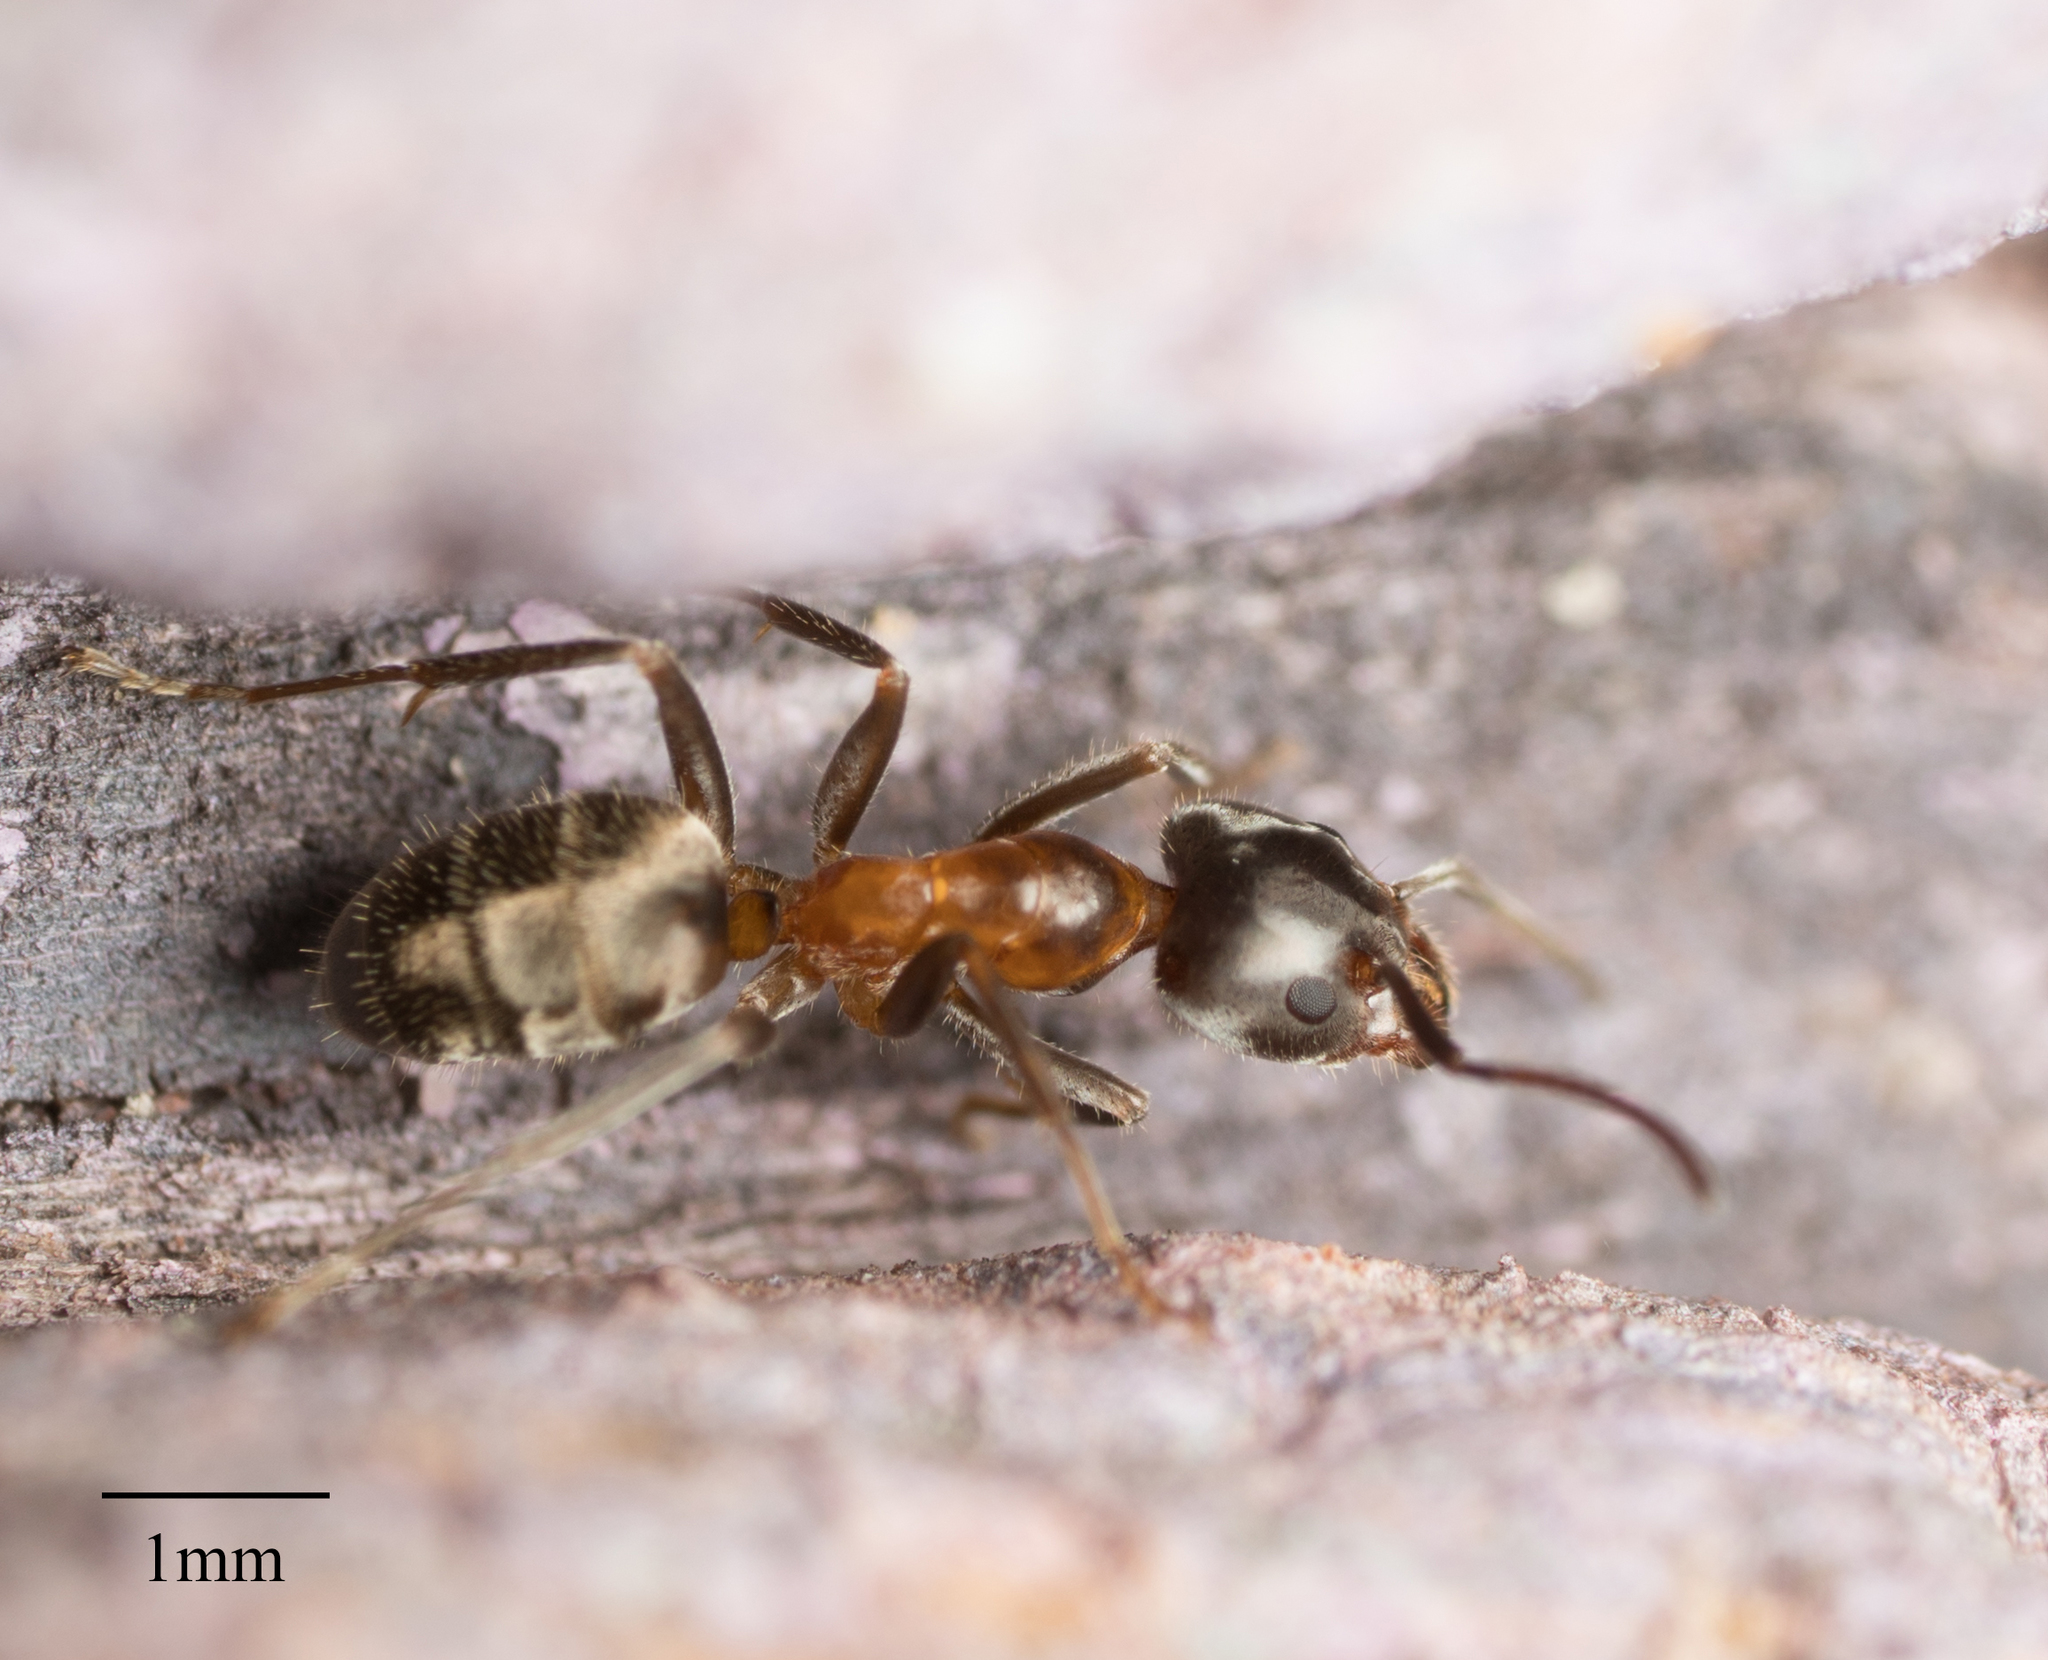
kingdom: Animalia
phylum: Arthropoda
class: Insecta
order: Hymenoptera
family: Formicidae
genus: Liometopum
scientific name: Liometopum occidentale
